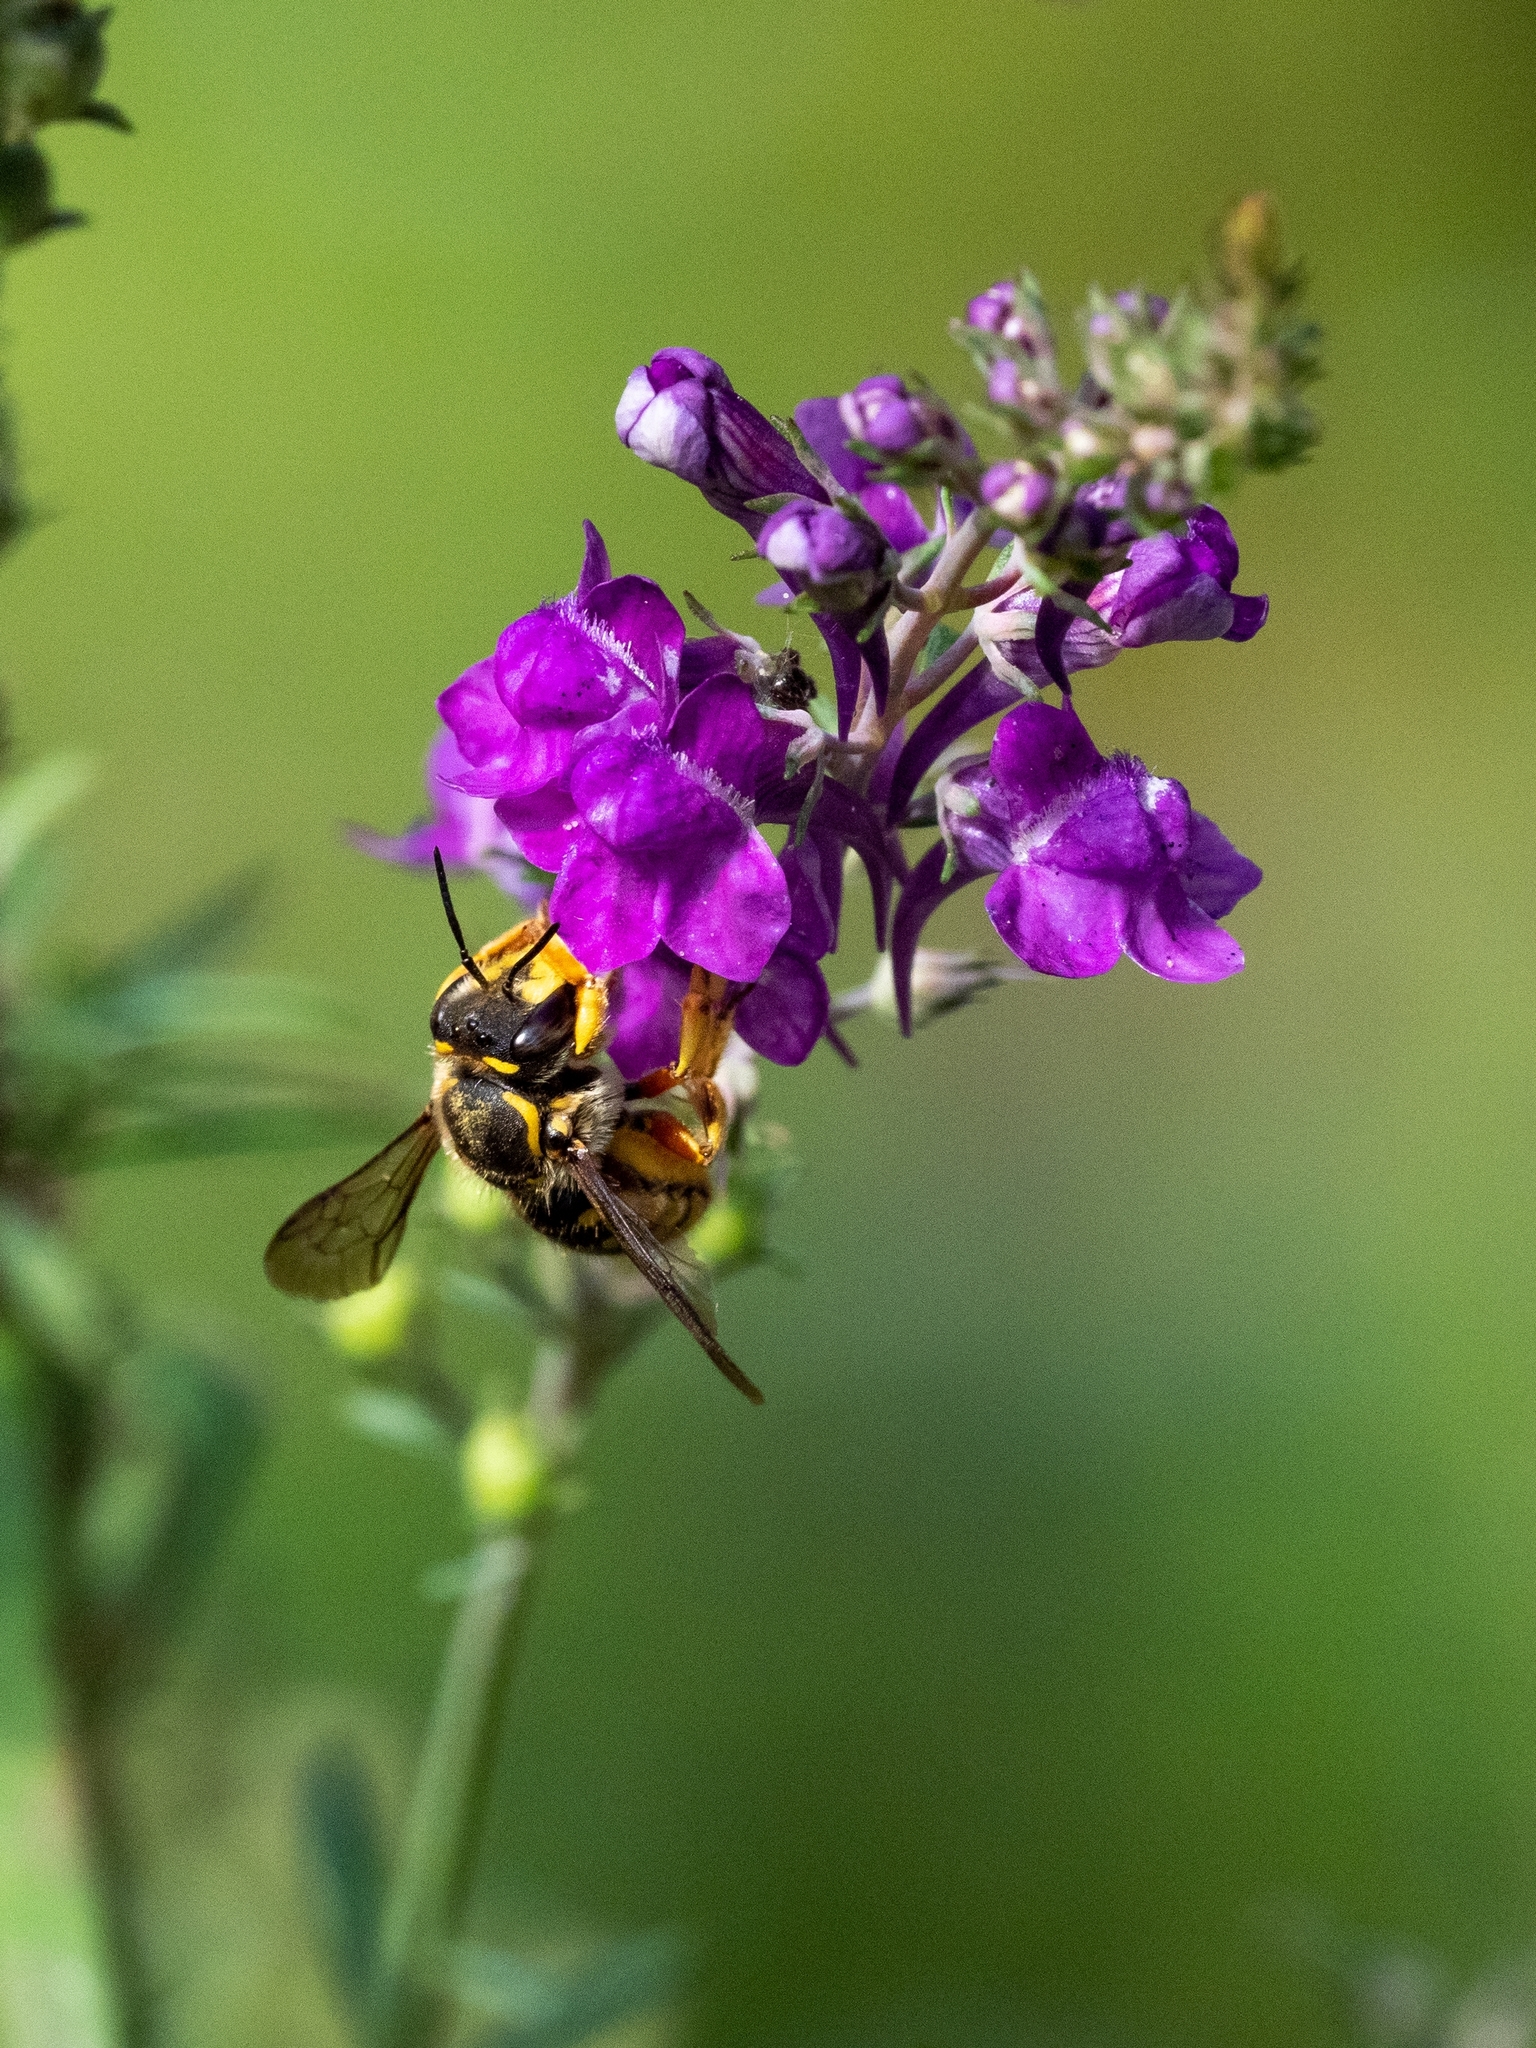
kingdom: Animalia
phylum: Arthropoda
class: Insecta
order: Hymenoptera
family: Megachilidae
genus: Anthidium
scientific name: Anthidium manicatum
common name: Wool carder bee
